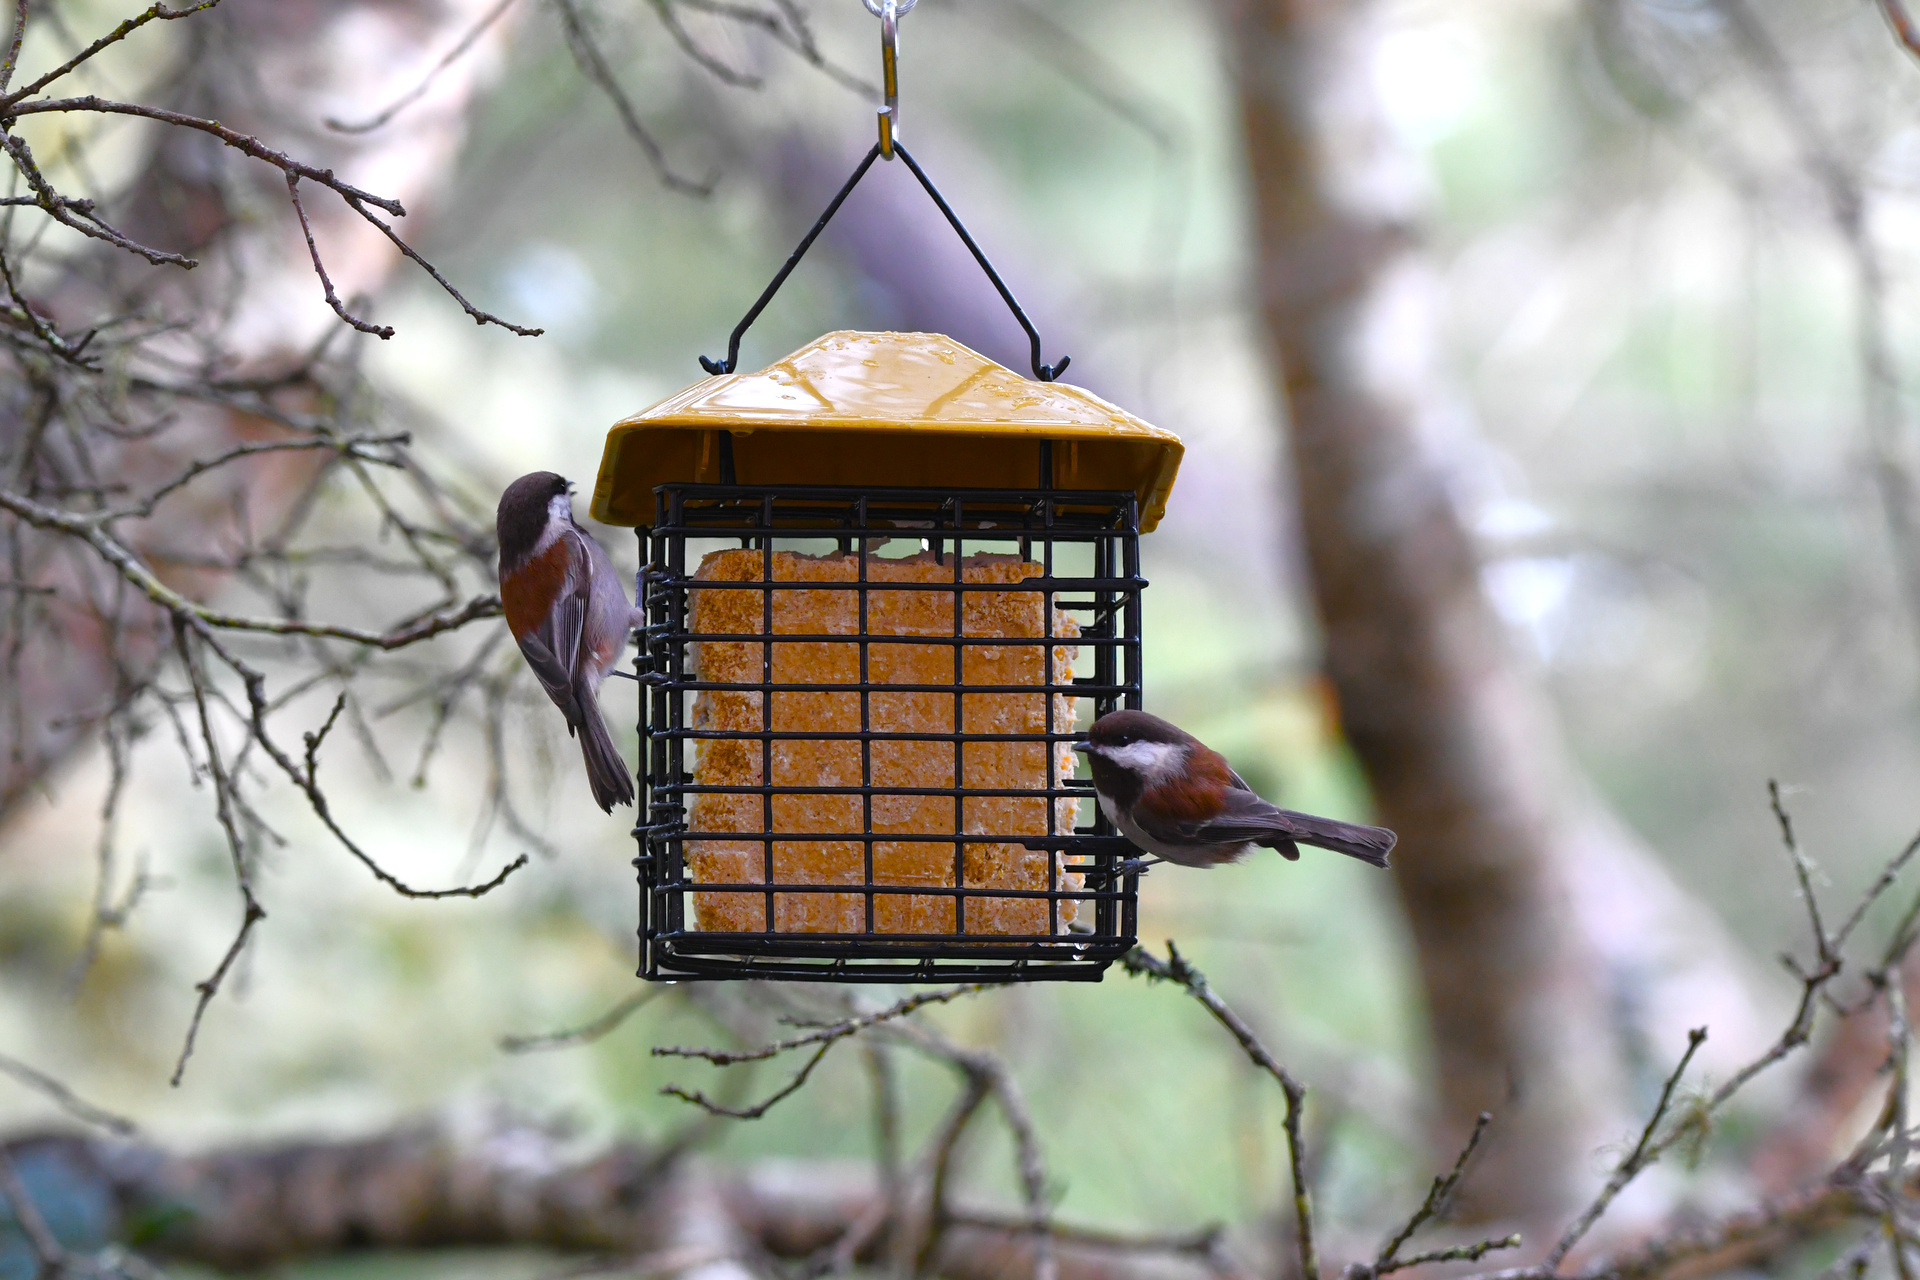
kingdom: Animalia
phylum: Chordata
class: Aves
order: Passeriformes
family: Paridae
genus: Poecile
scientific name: Poecile rufescens
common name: Chestnut-backed chickadee
